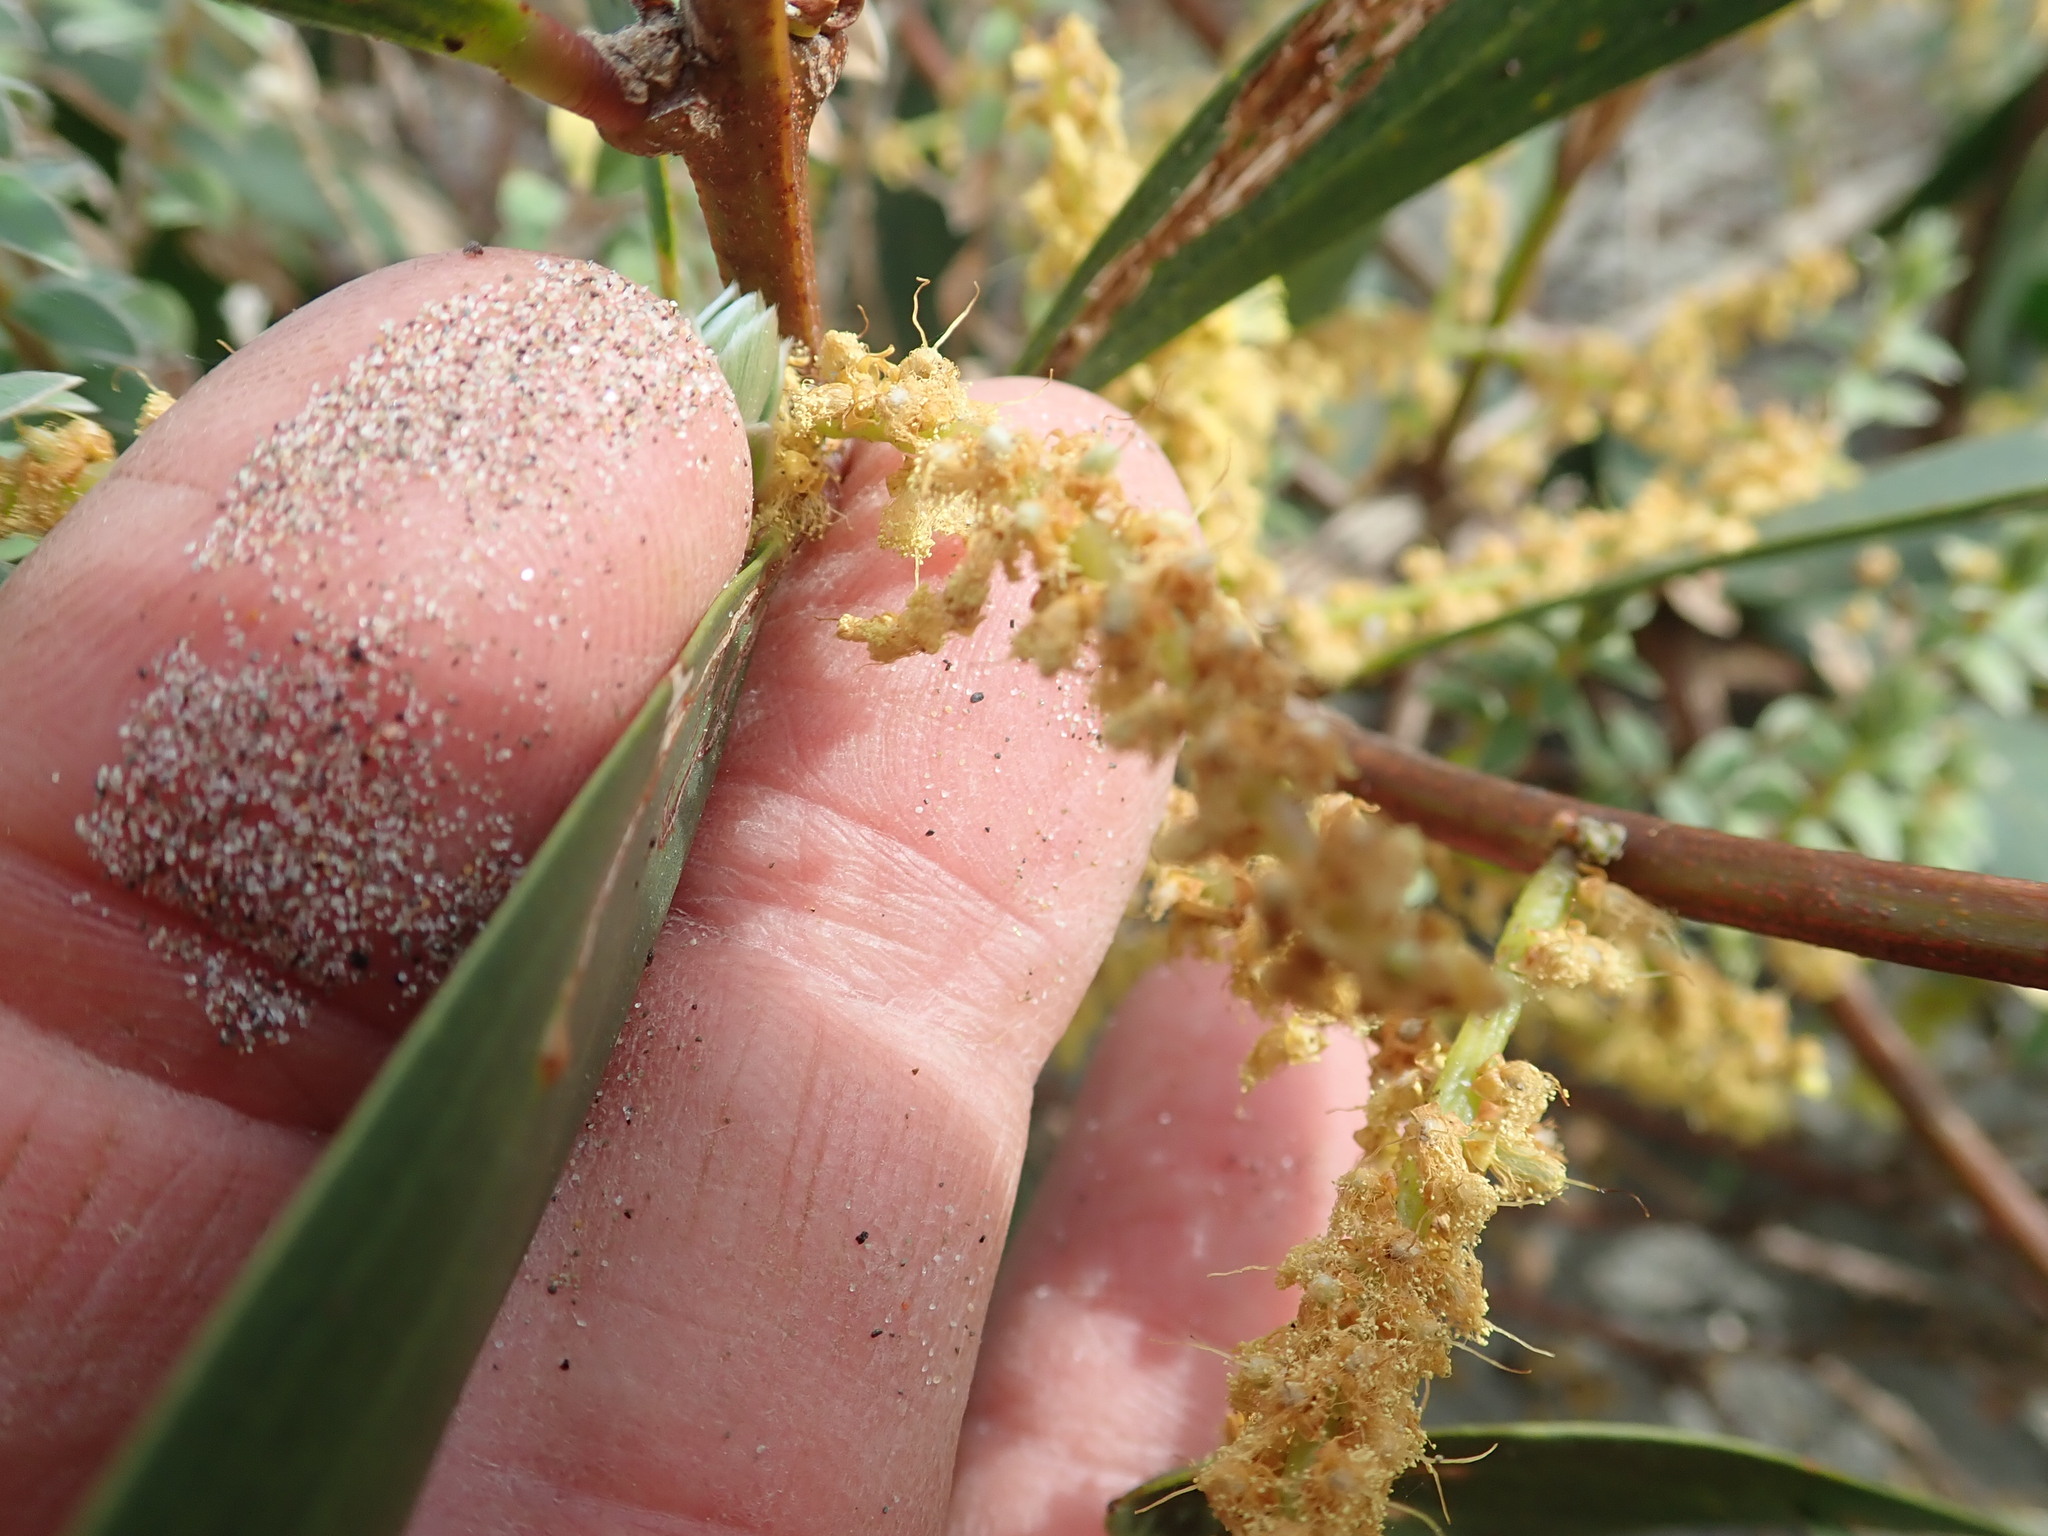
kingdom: Plantae
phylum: Tracheophyta
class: Magnoliopsida
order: Fabales
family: Fabaceae
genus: Acacia
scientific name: Acacia longifolia
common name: Sydney golden wattle
